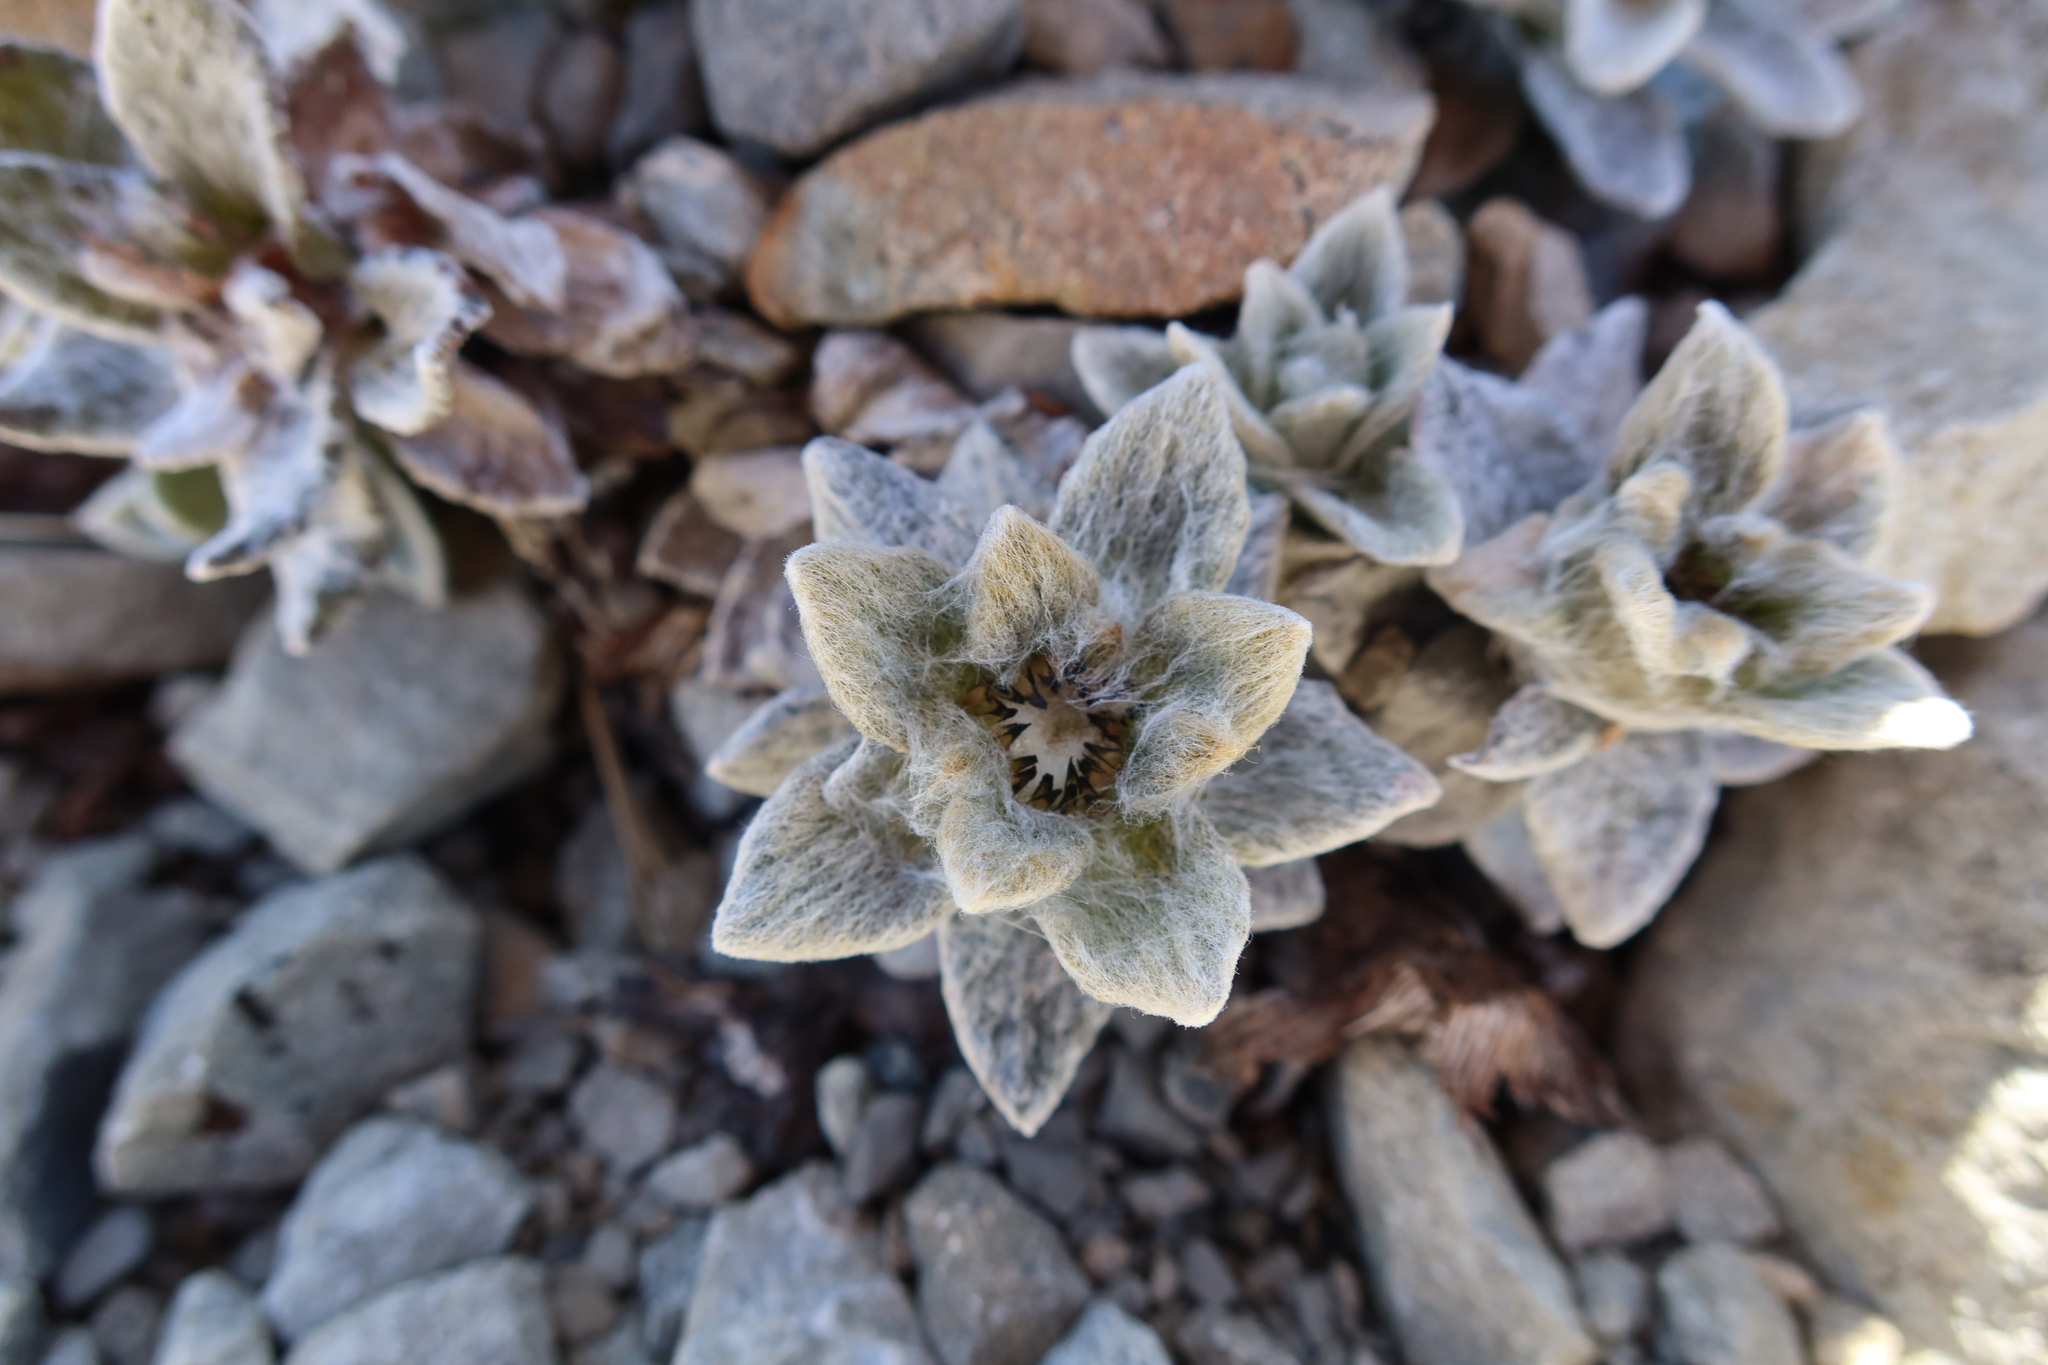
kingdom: Plantae
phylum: Tracheophyta
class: Magnoliopsida
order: Asterales
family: Asteraceae
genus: Haastia
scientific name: Haastia sinclairii
